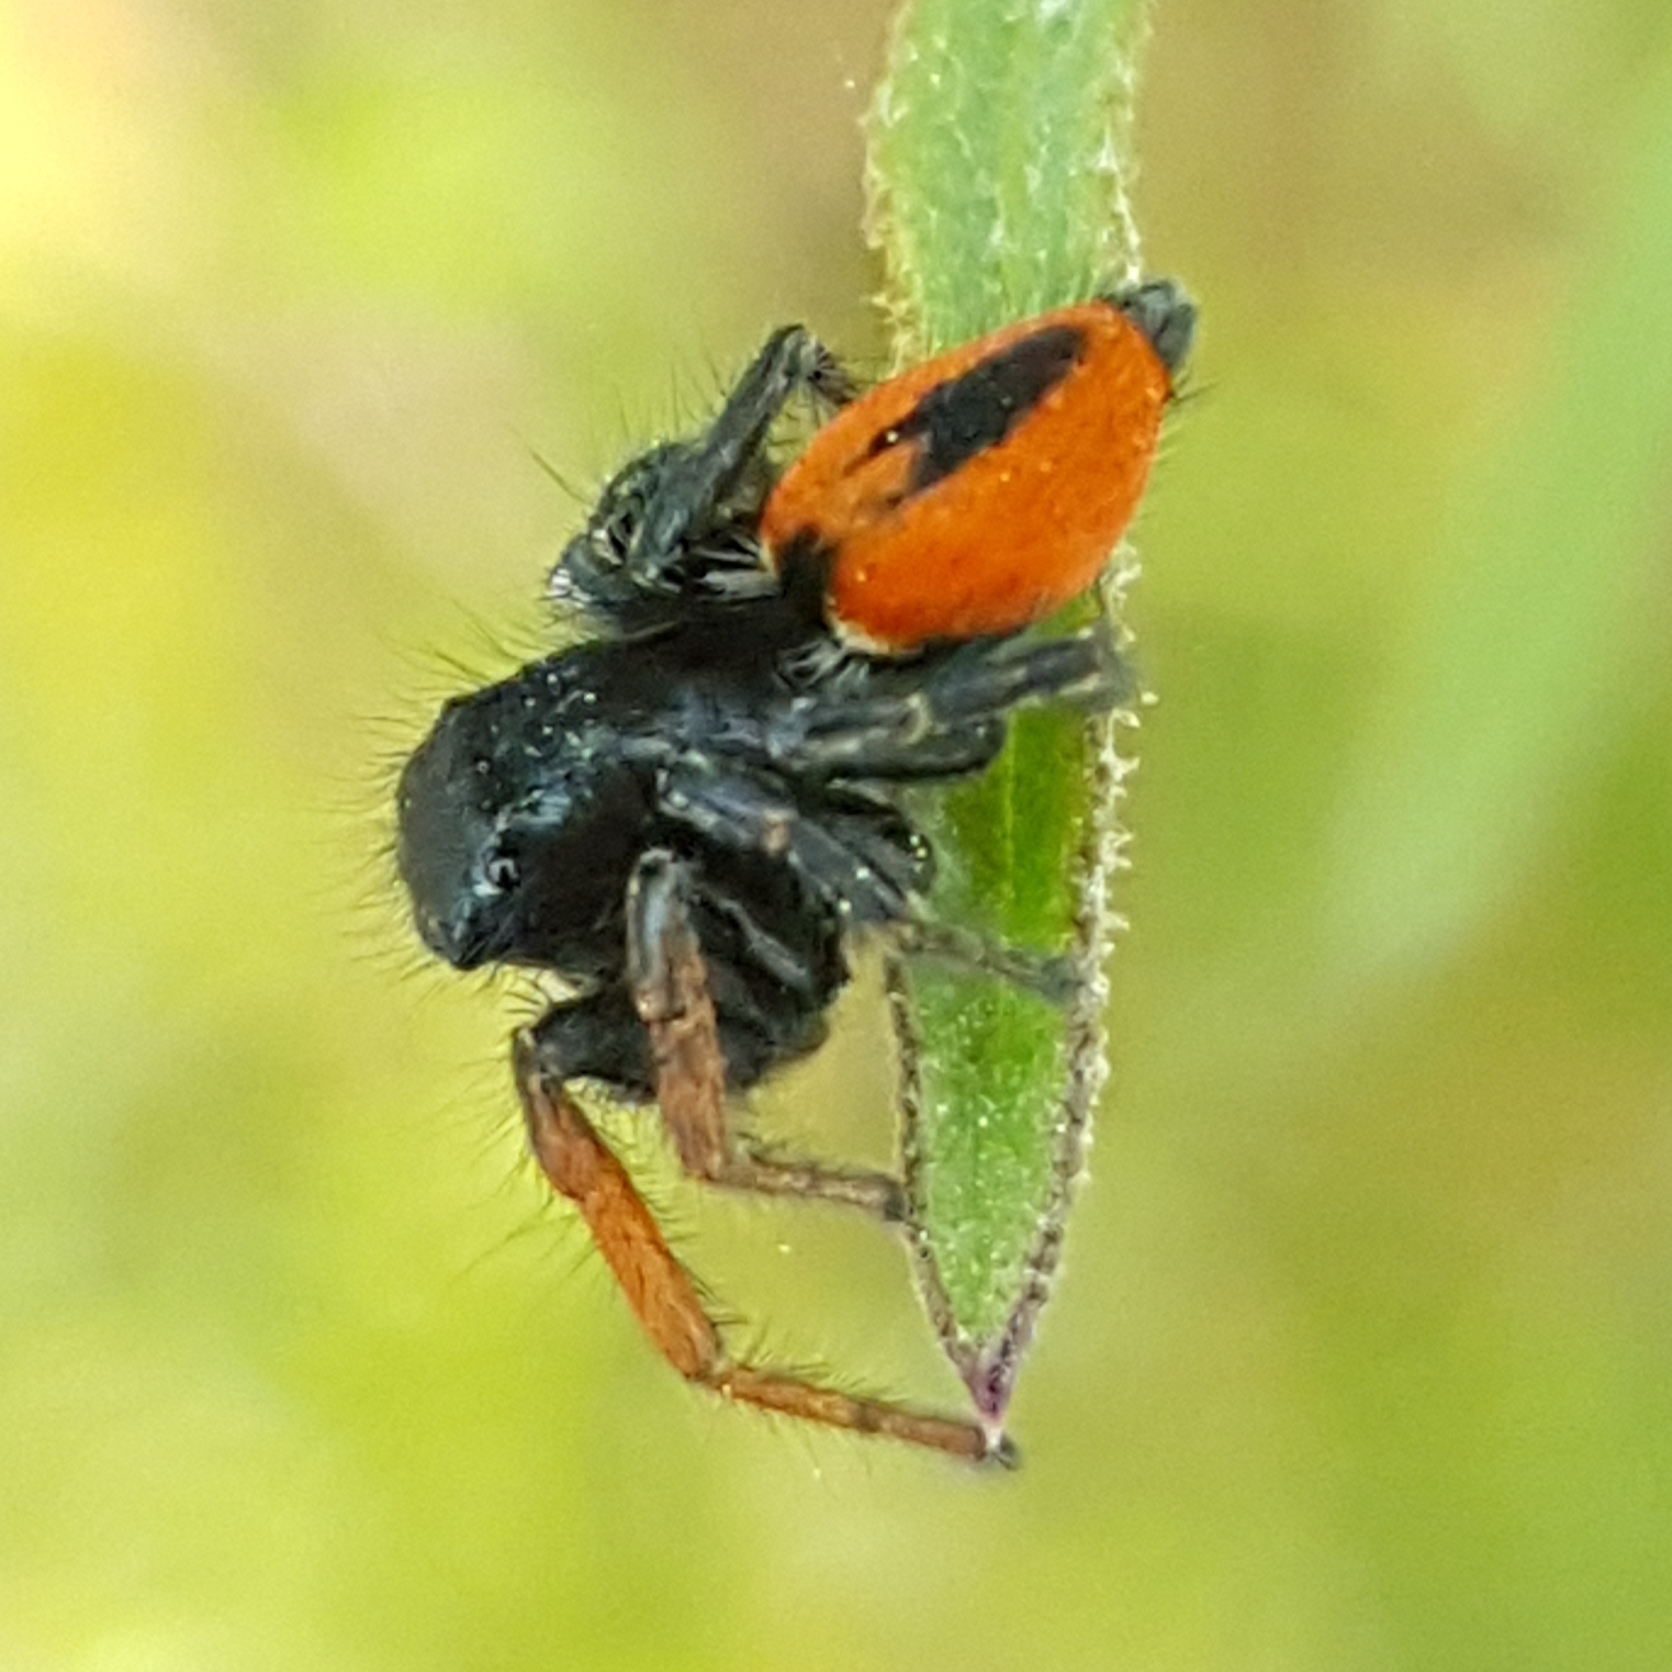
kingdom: Animalia
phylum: Arthropoda
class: Arachnida
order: Araneae
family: Salticidae
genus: Philaeus
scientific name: Philaeus chrysops
